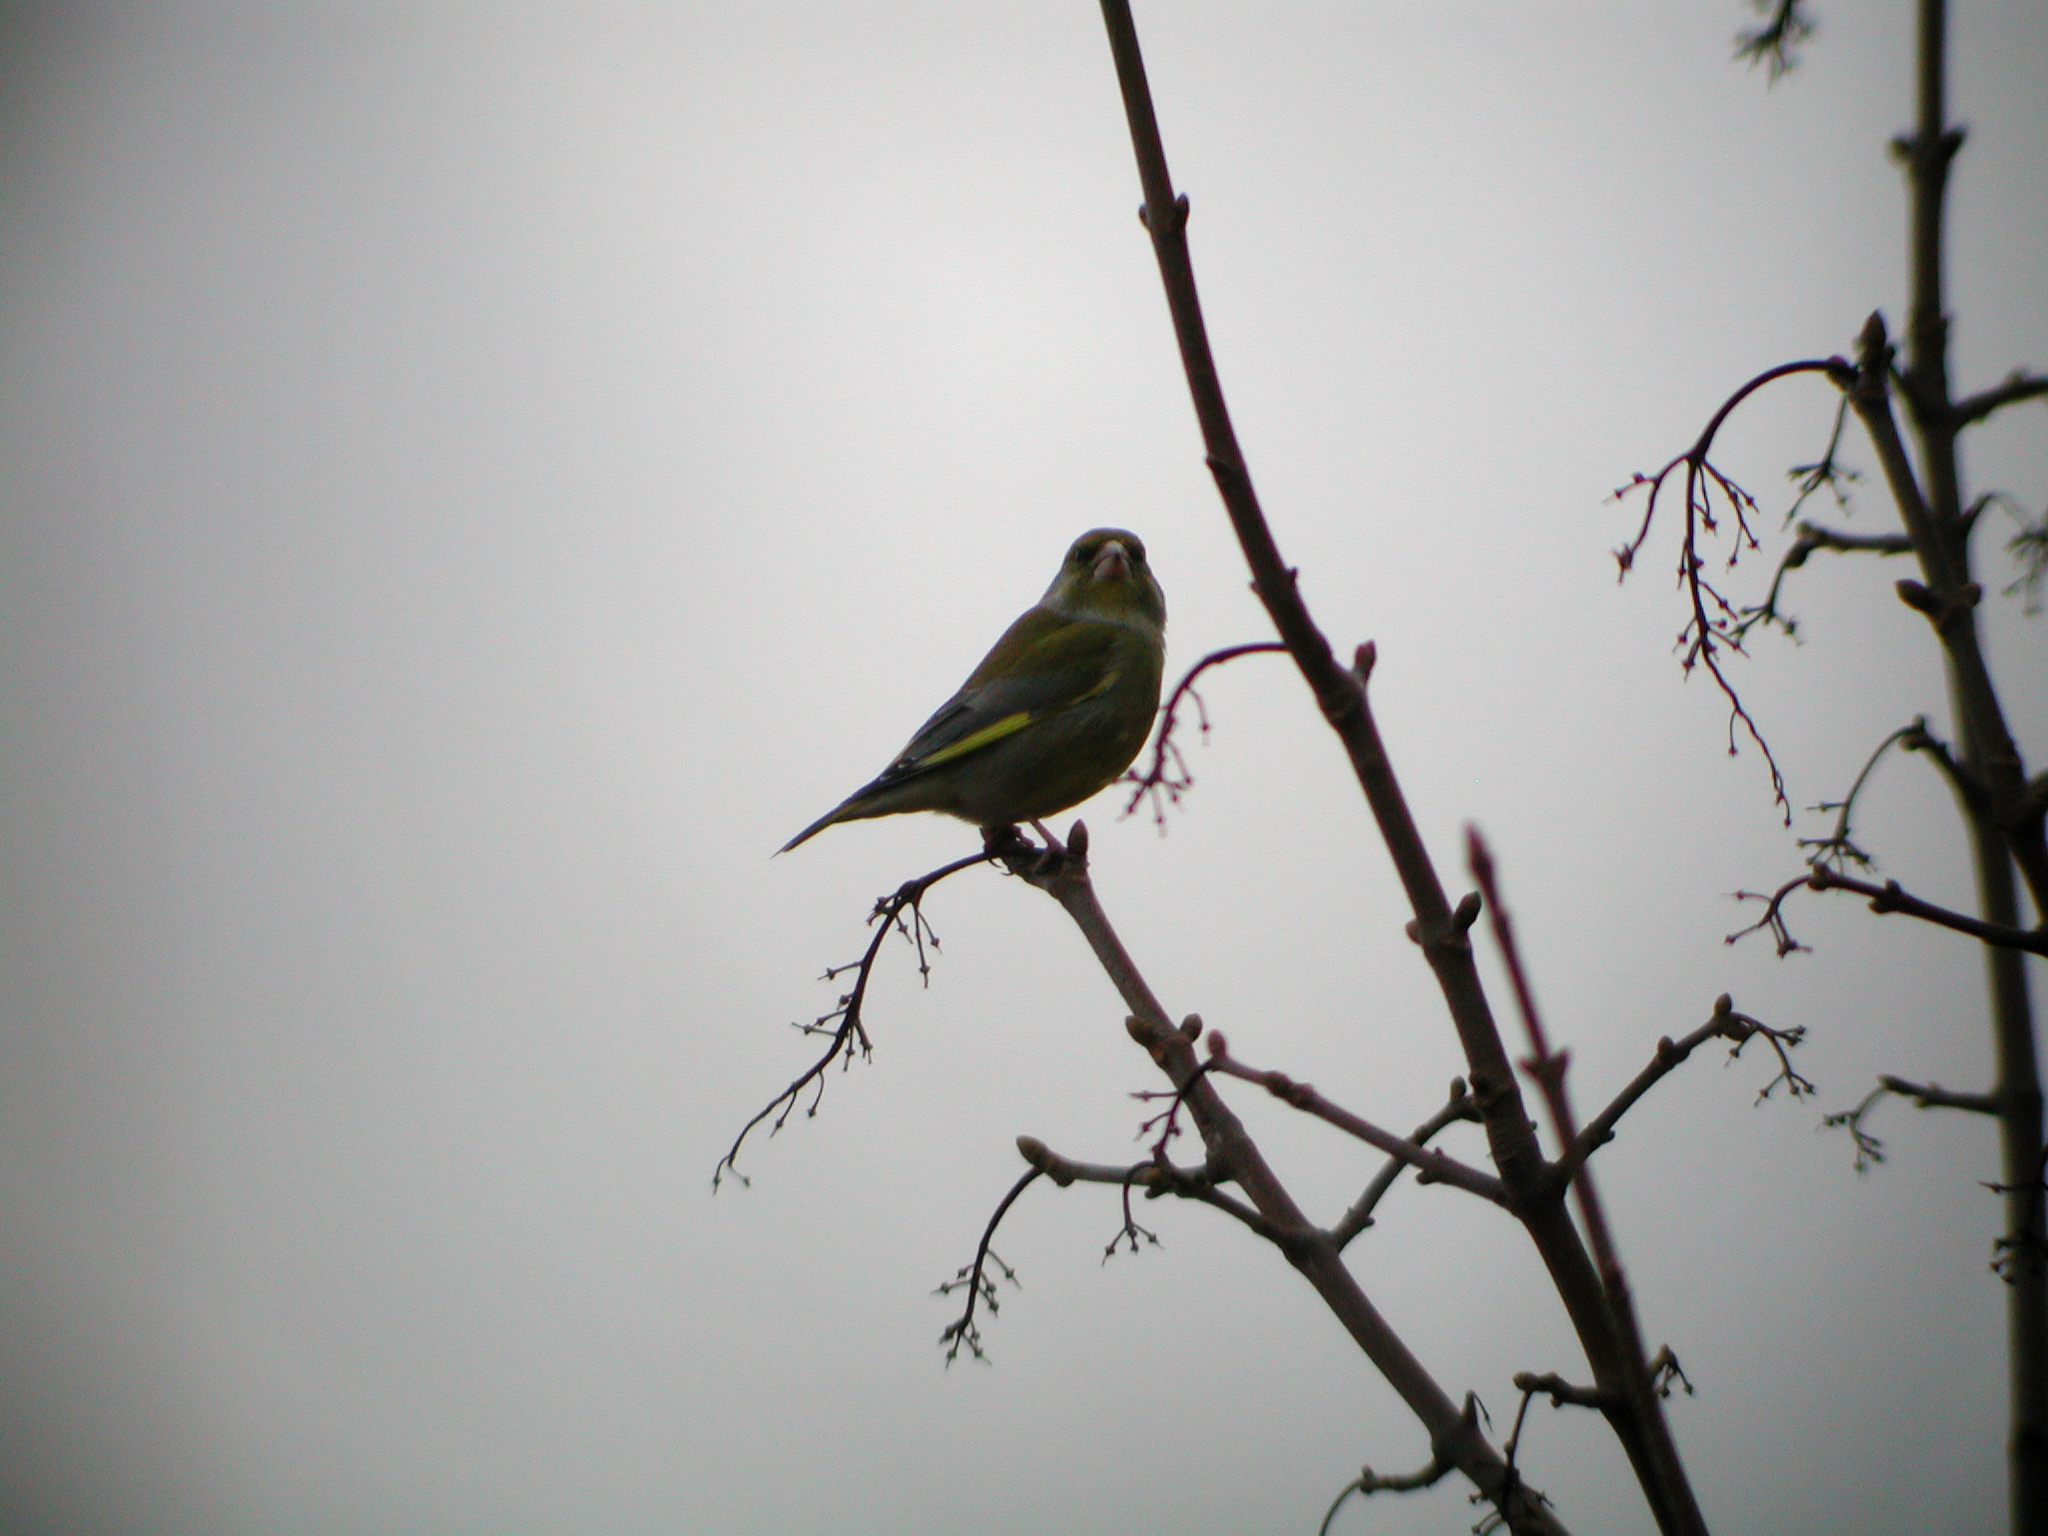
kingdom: Plantae
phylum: Tracheophyta
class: Liliopsida
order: Poales
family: Poaceae
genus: Chloris
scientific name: Chloris chloris
